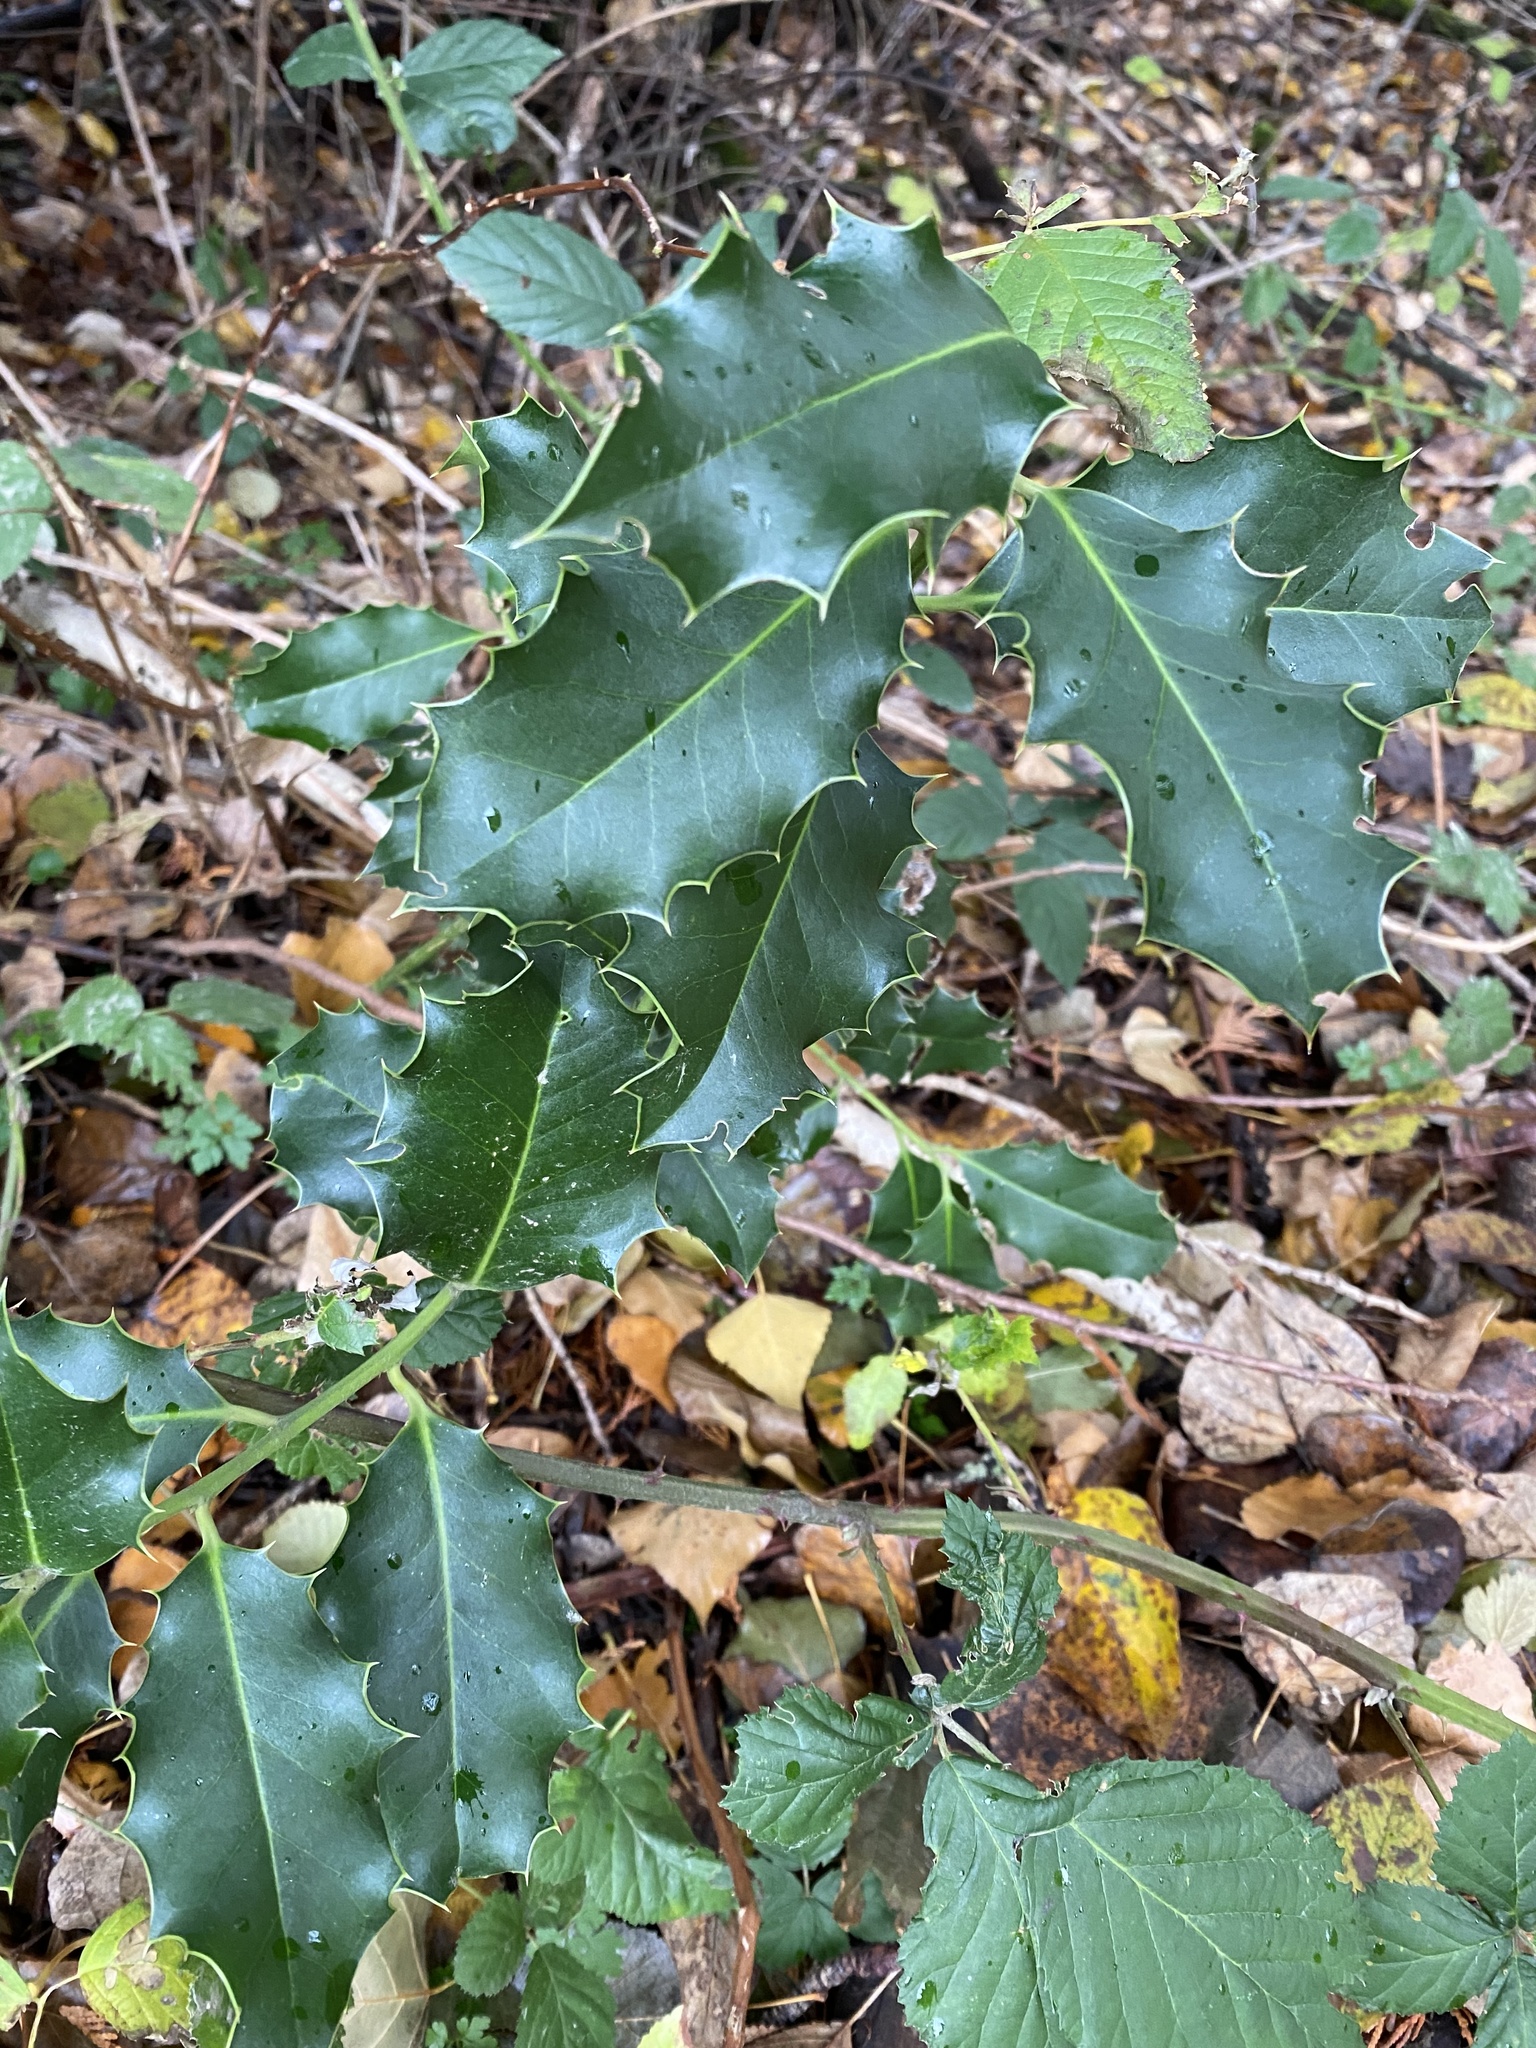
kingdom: Plantae
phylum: Tracheophyta
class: Magnoliopsida
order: Aquifoliales
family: Aquifoliaceae
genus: Ilex
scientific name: Ilex aquifolium
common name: English holly
